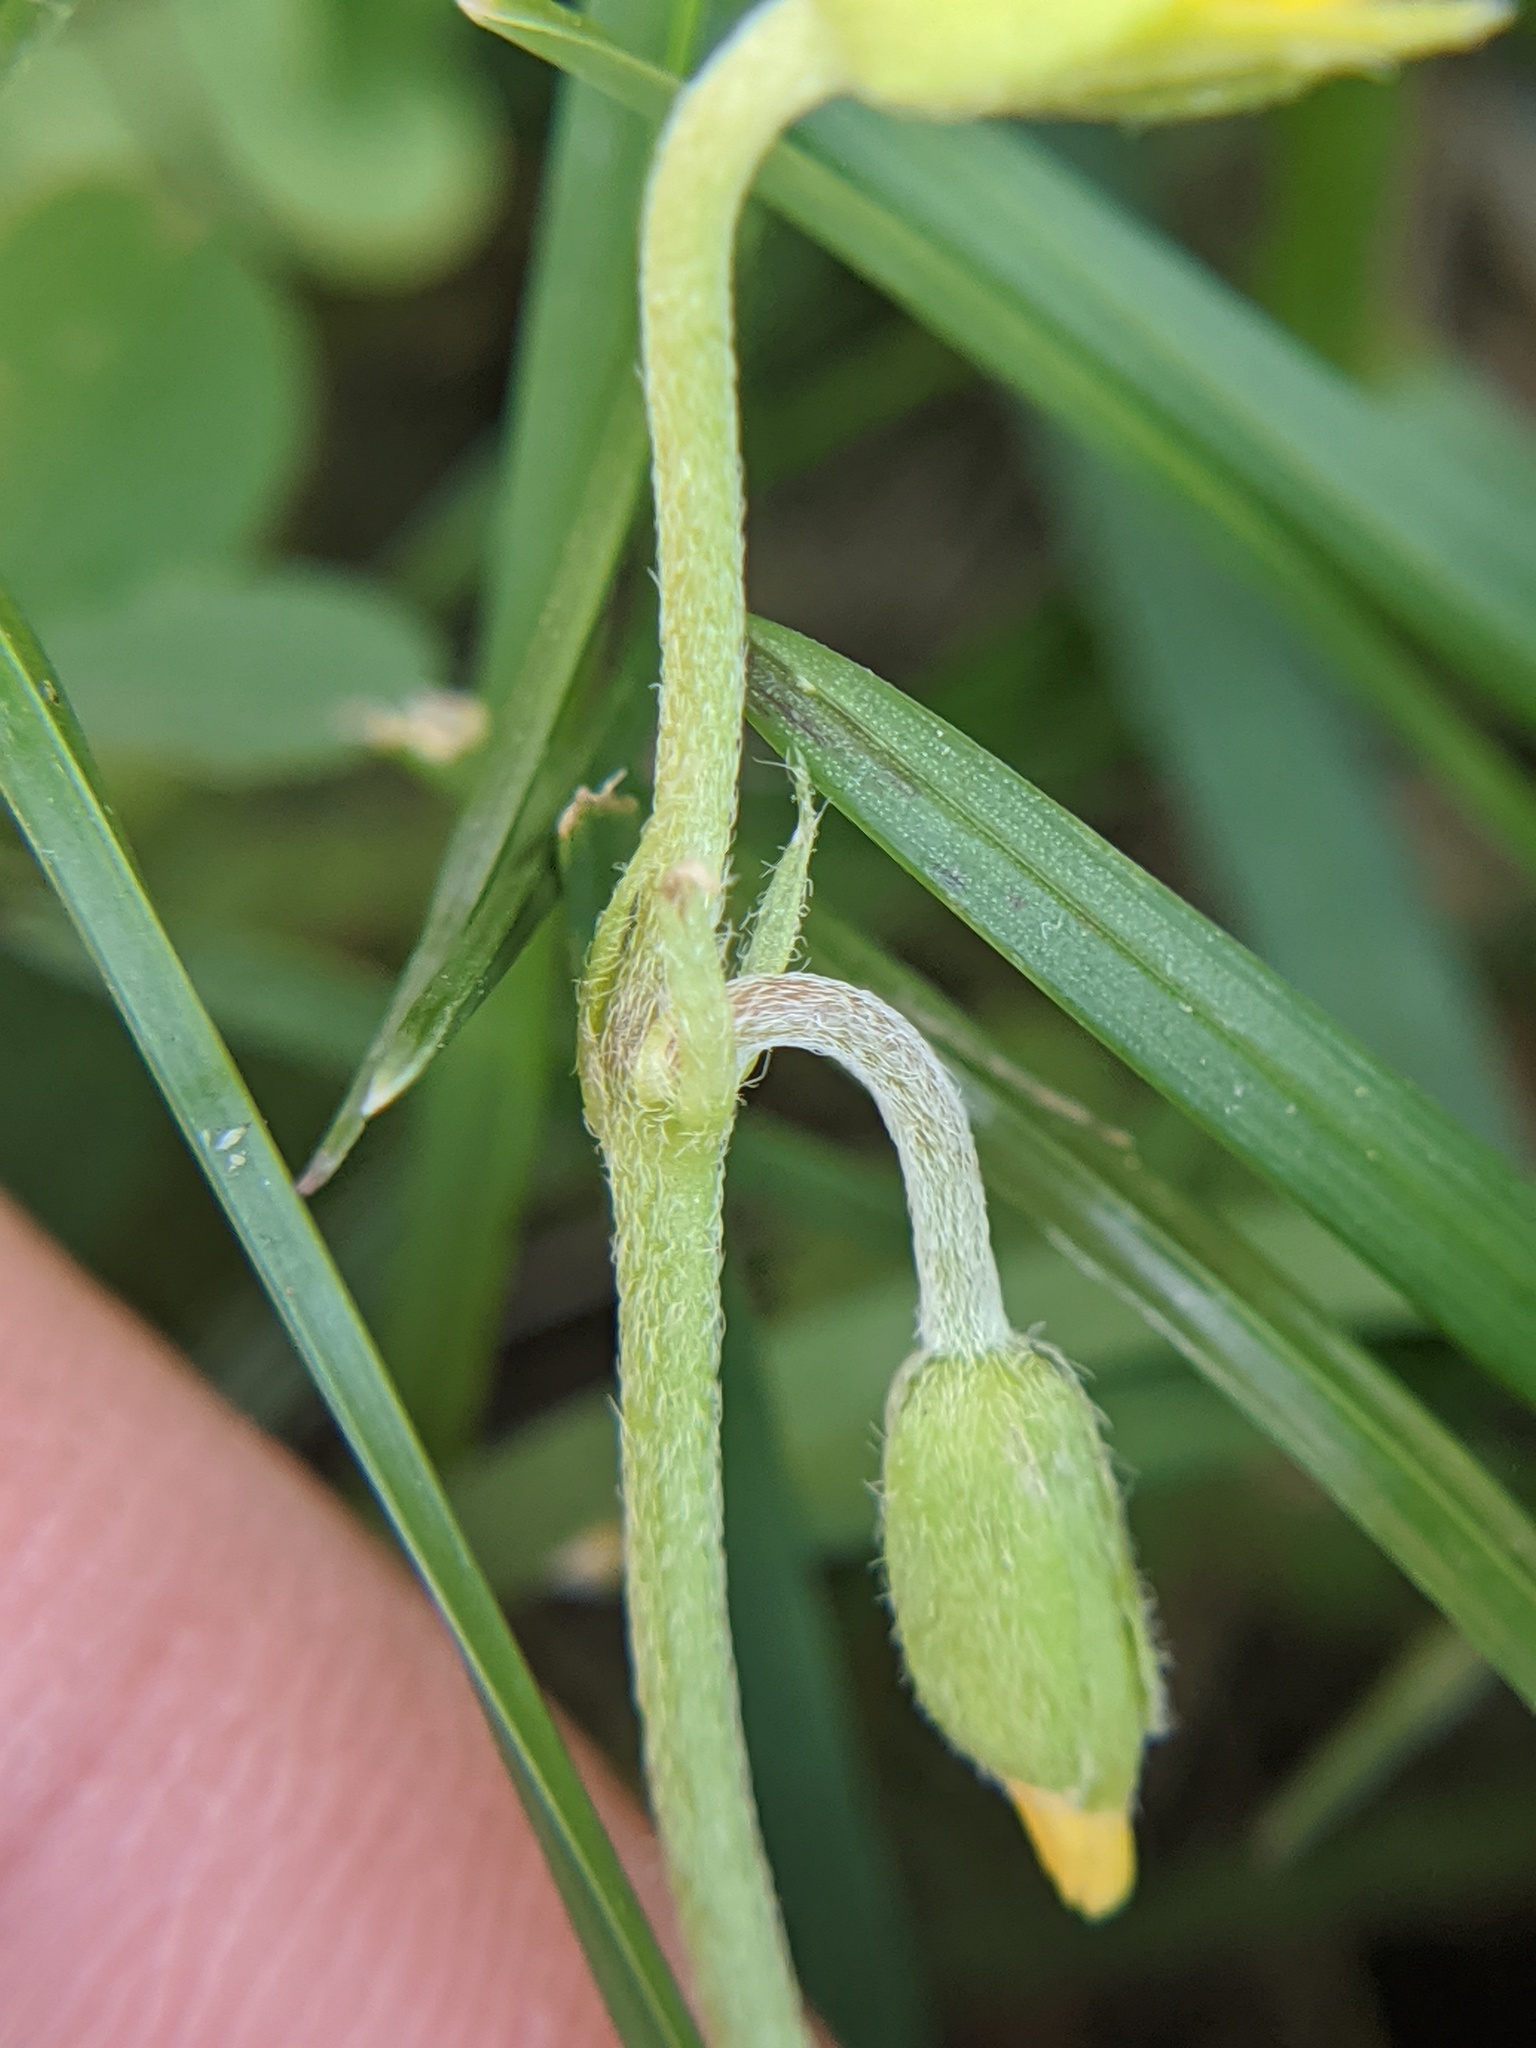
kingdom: Plantae
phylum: Tracheophyta
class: Magnoliopsida
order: Oxalidales
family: Oxalidaceae
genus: Oxalis
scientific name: Oxalis dillenii
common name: Sussex yellow-sorrel
